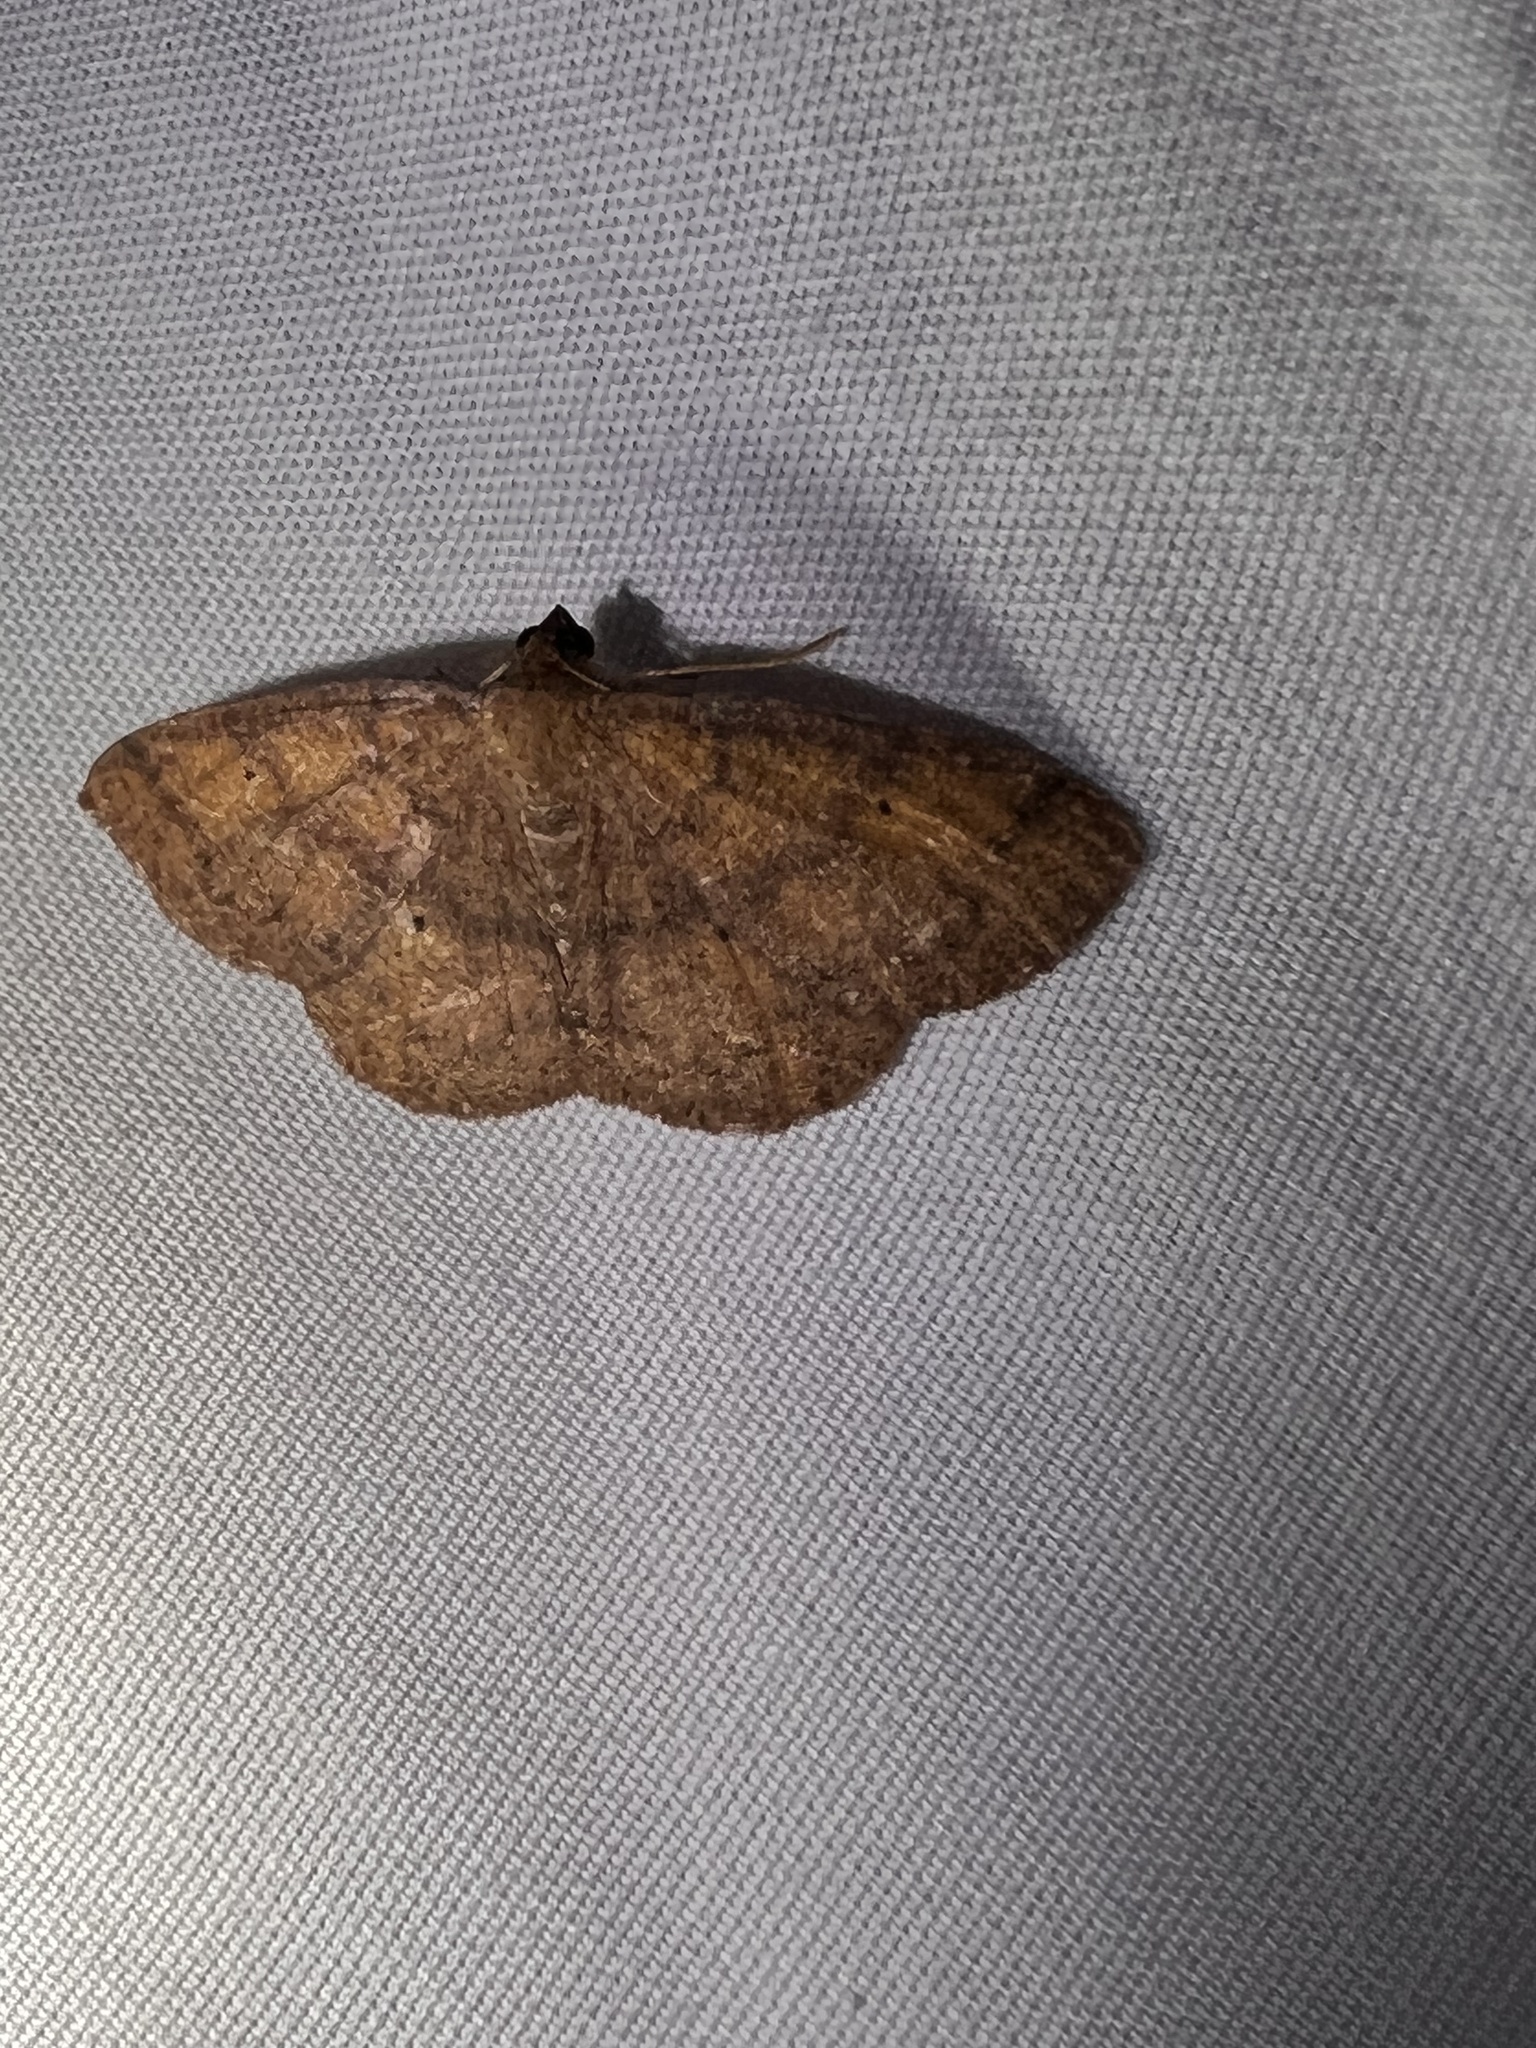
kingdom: Animalia
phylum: Arthropoda
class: Insecta
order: Lepidoptera
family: Geometridae
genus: Ilexia
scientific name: Ilexia intractata
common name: Black-dotted ruddy moth
